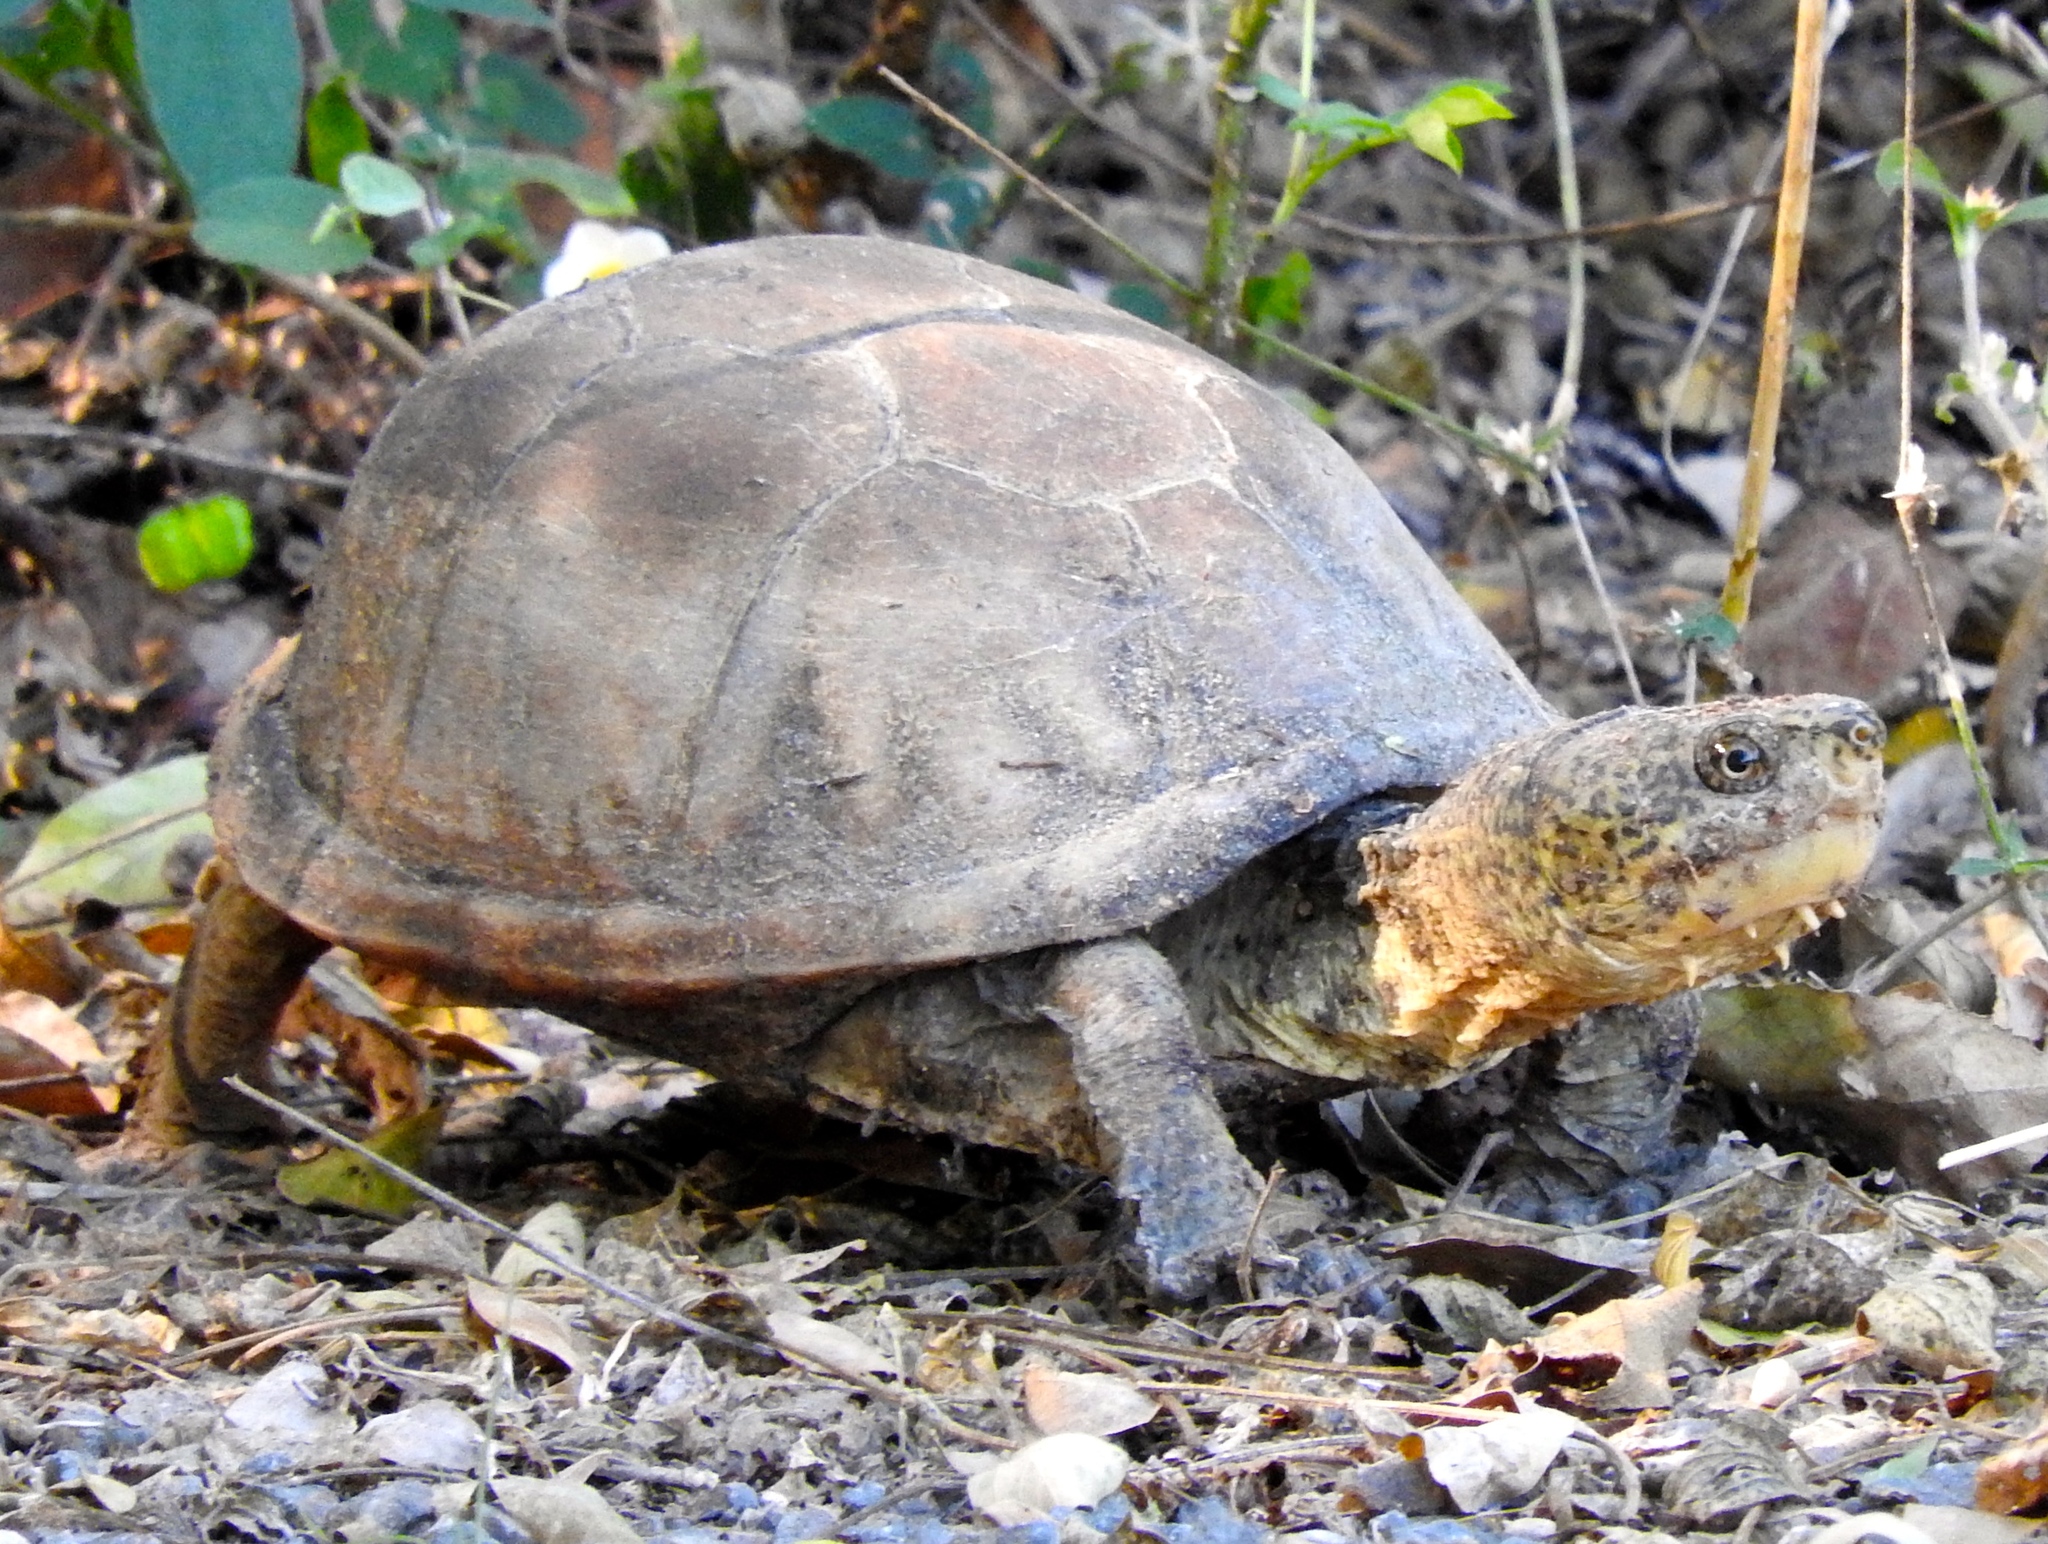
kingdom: Animalia
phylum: Chordata
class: Testudines
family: Kinosternidae
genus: Kinosternon
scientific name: Kinosternon integrum
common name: Mexican mud turtle
